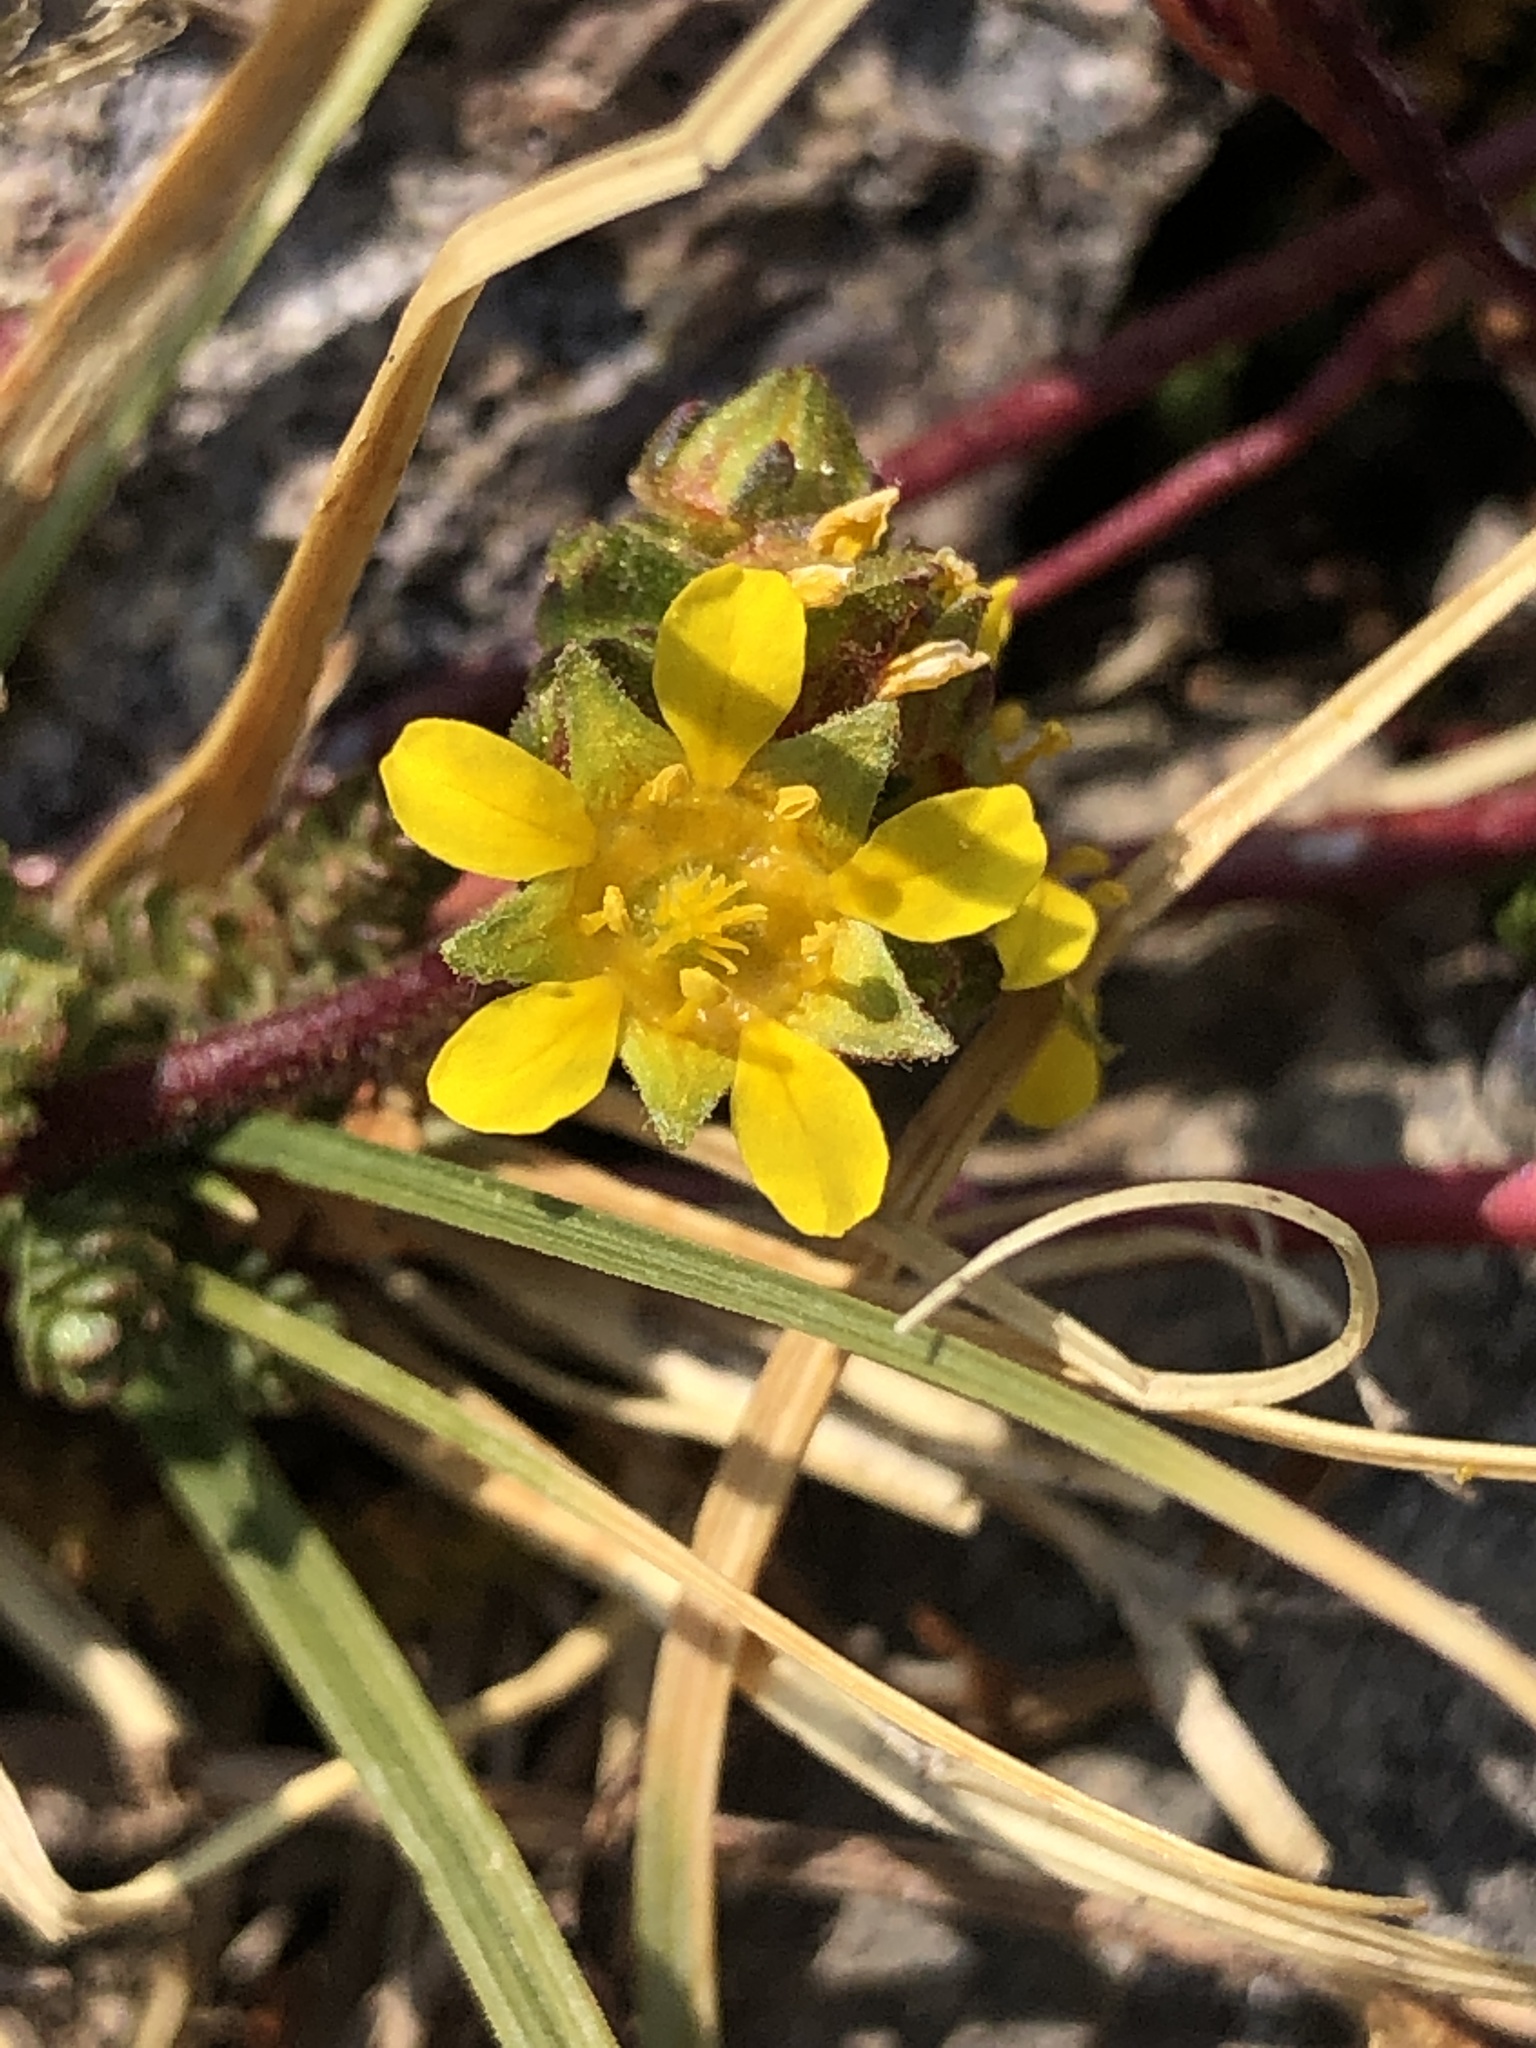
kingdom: Plantae
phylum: Tracheophyta
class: Magnoliopsida
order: Rosales
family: Rosaceae
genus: Potentilla
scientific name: Potentilla gordonii
